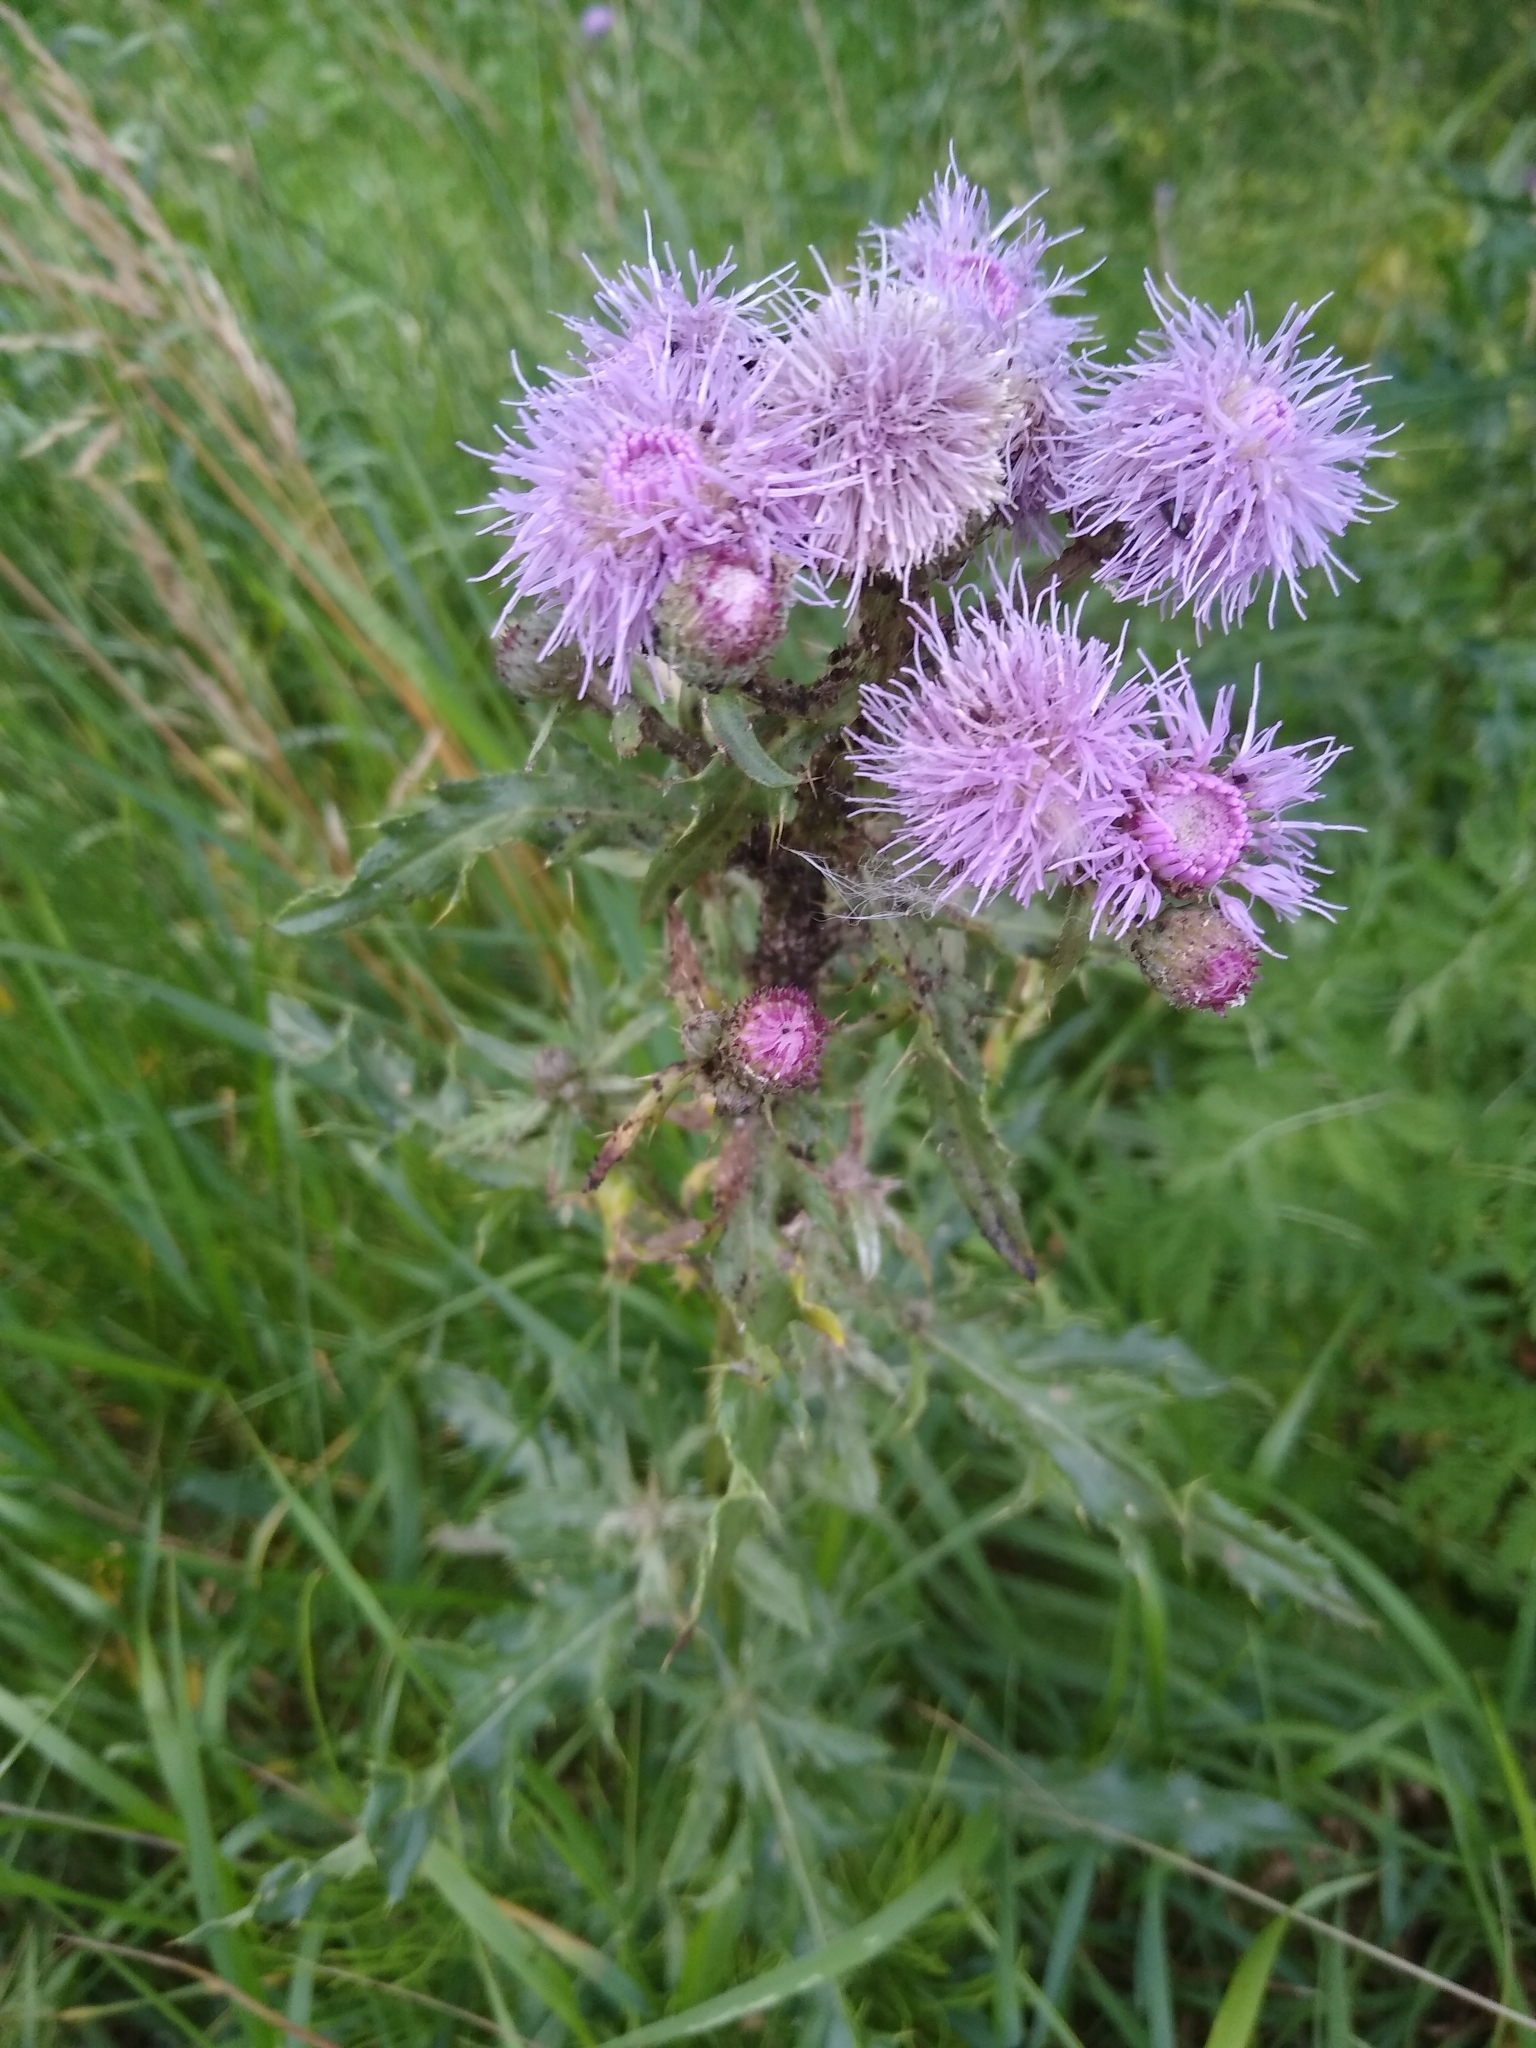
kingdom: Plantae
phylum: Tracheophyta
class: Magnoliopsida
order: Asterales
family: Asteraceae
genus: Cirsium
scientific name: Cirsium arvense
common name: Creeping thistle
